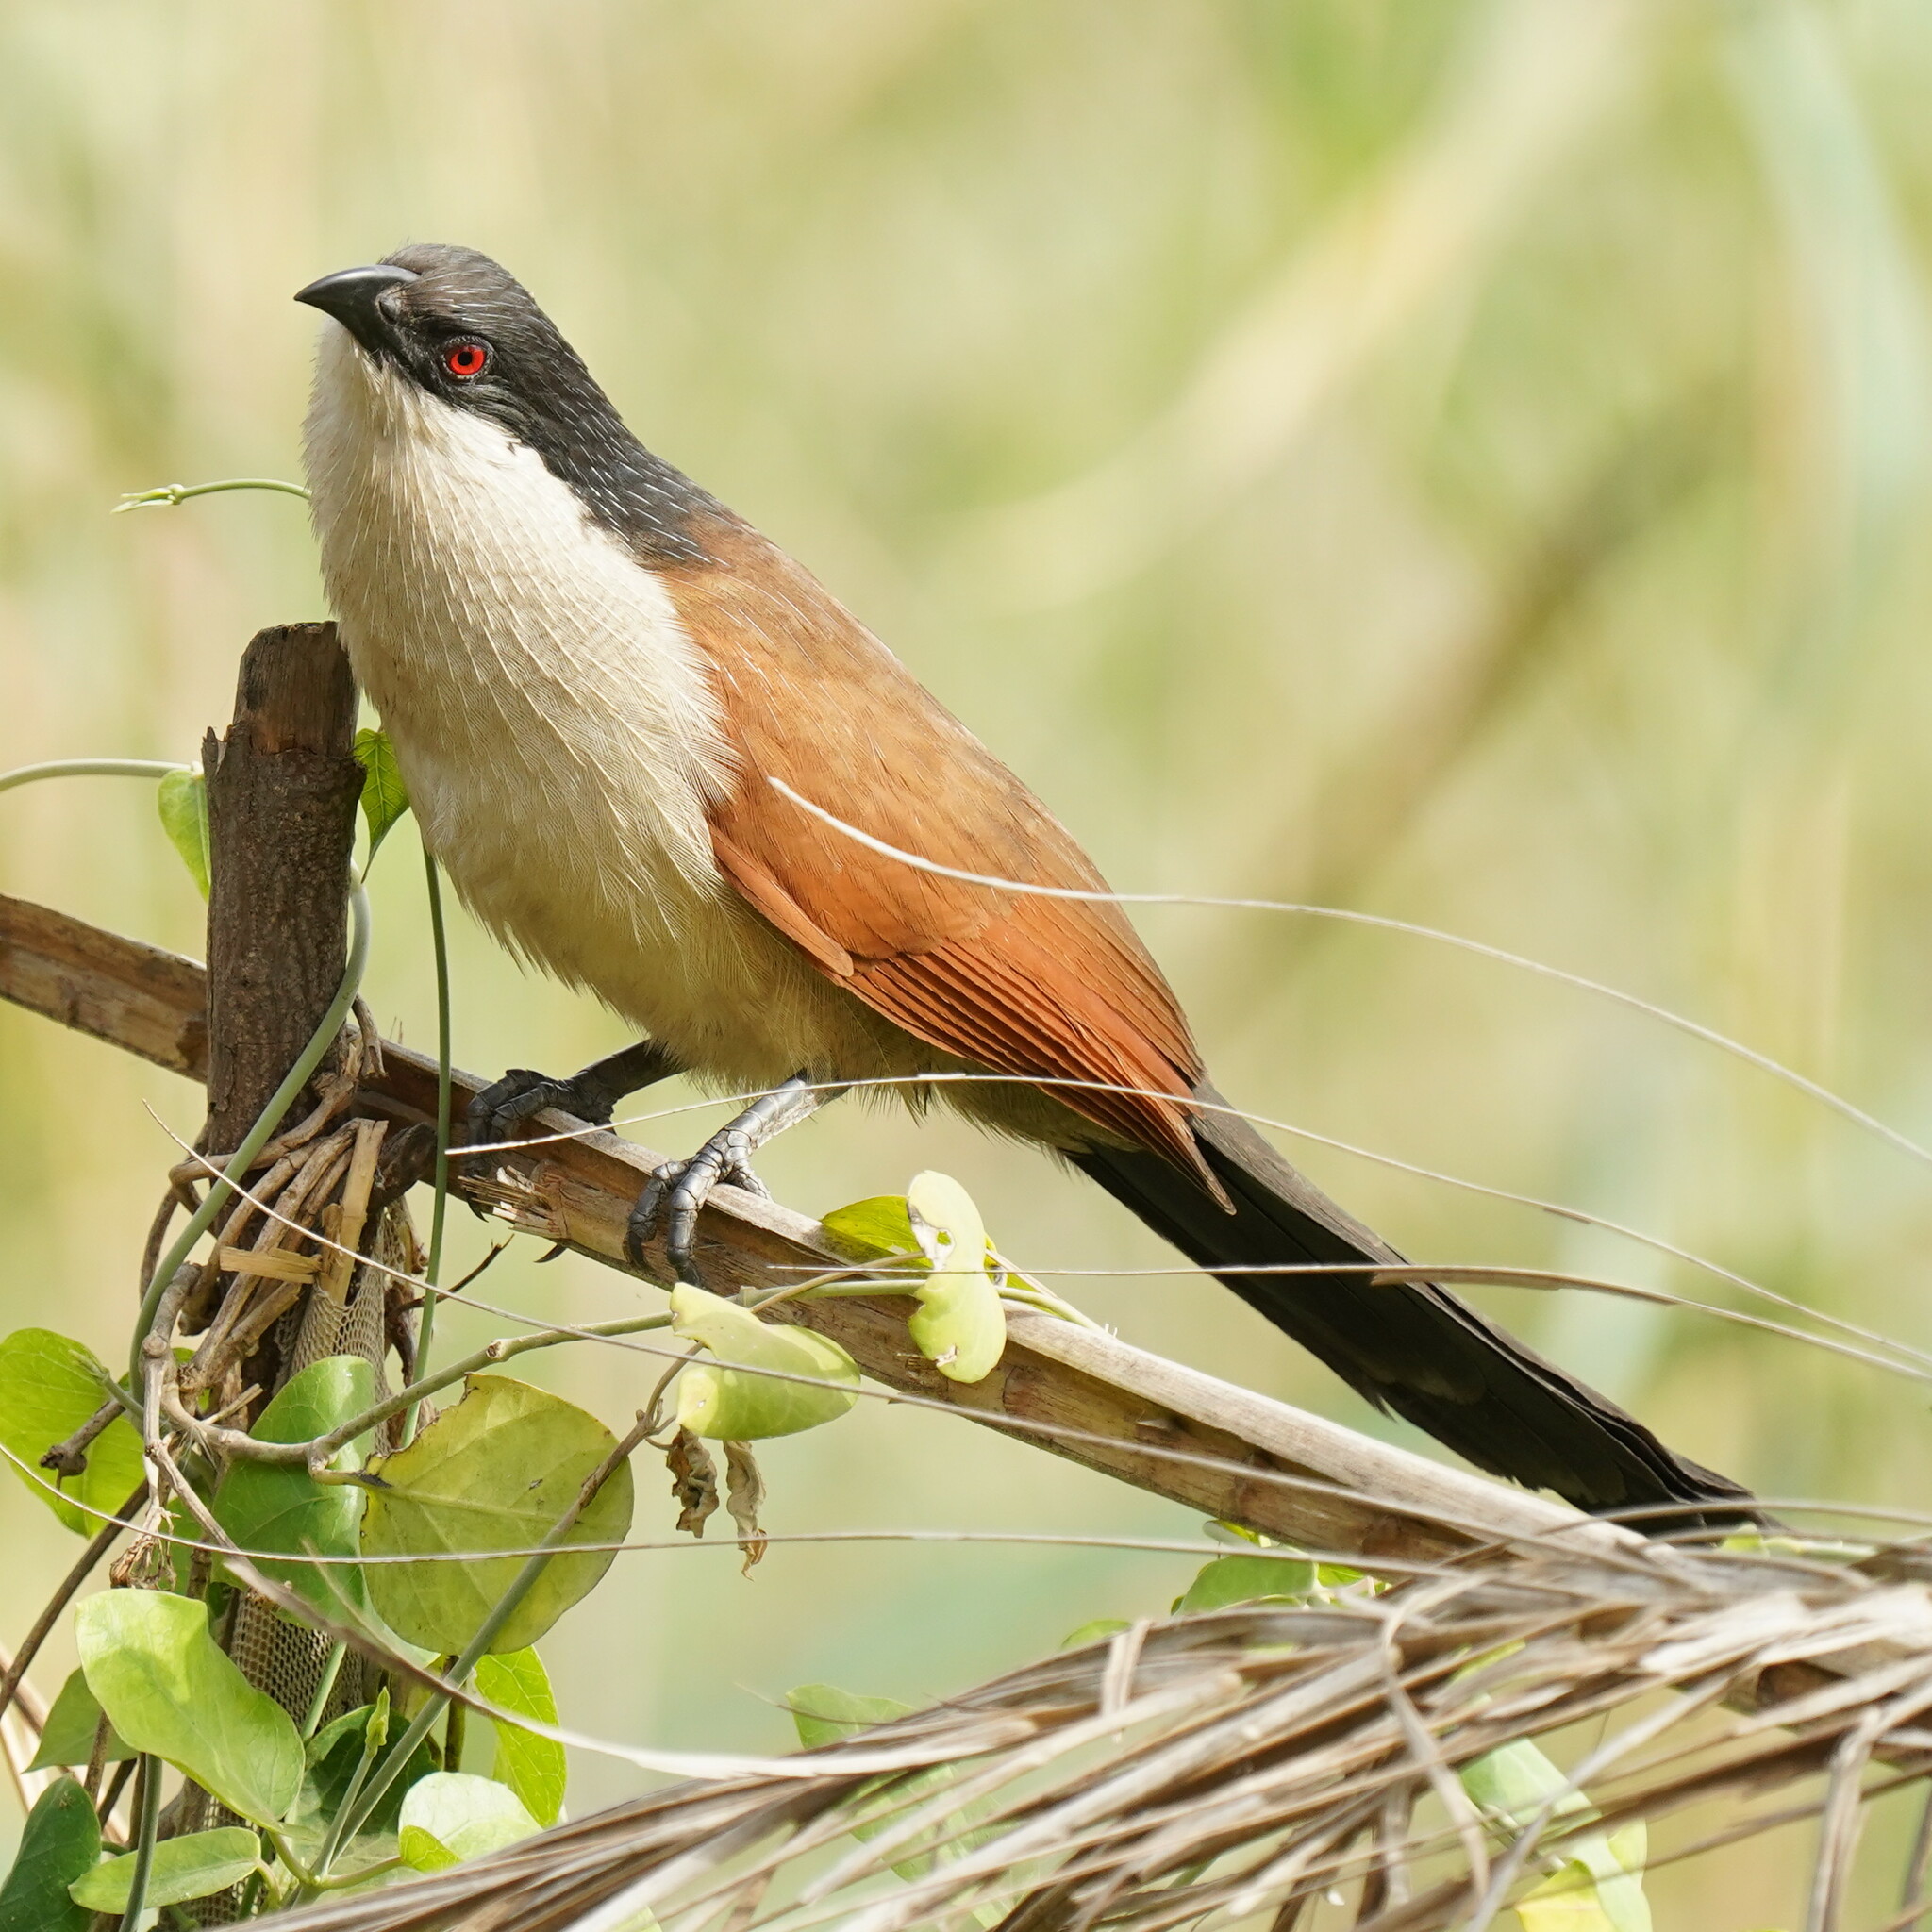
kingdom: Animalia
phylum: Chordata
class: Aves
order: Cuculiformes
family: Cuculidae
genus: Centropus
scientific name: Centropus senegalensis
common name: Senegal coucal
